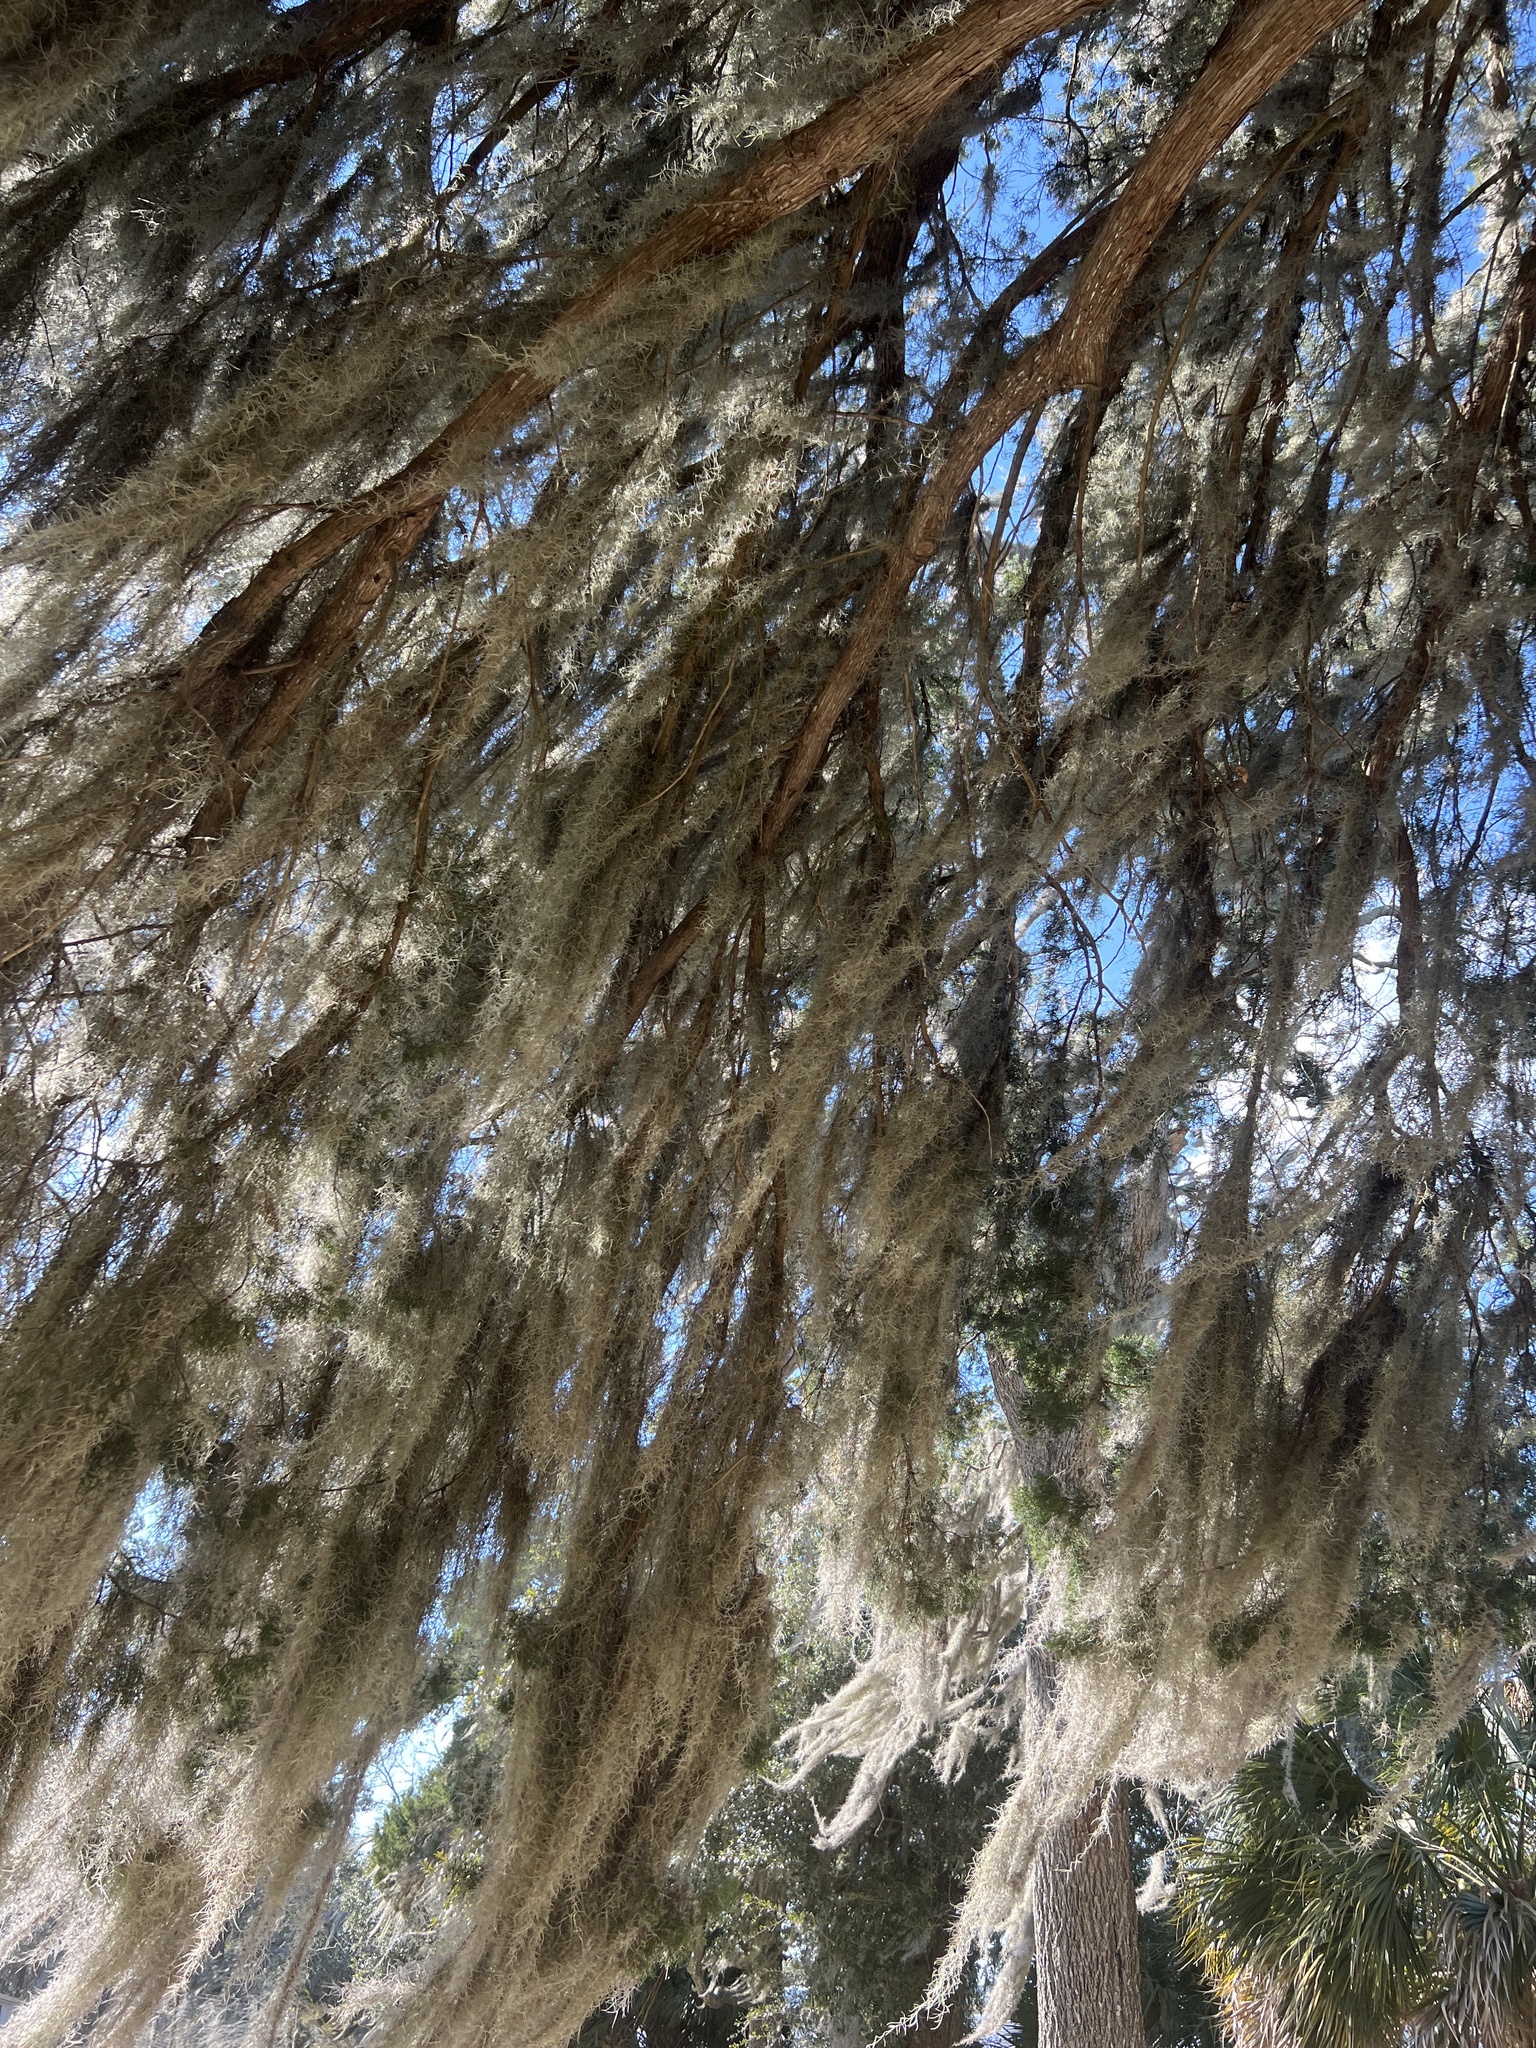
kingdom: Plantae
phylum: Tracheophyta
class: Liliopsida
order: Poales
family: Bromeliaceae
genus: Tillandsia
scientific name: Tillandsia usneoides
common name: Spanish moss
